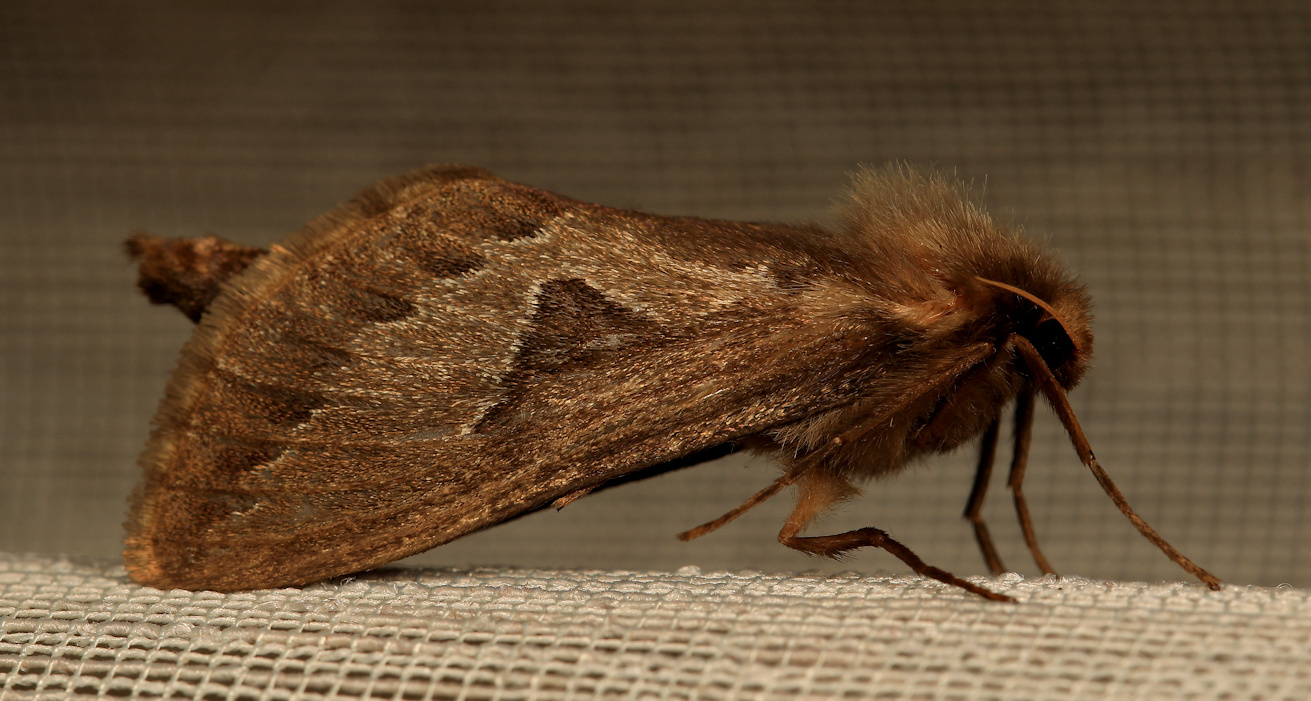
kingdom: Animalia
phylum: Arthropoda
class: Insecta
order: Lepidoptera
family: Hepialidae
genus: Eudalaca
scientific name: Eudalaca infumata
